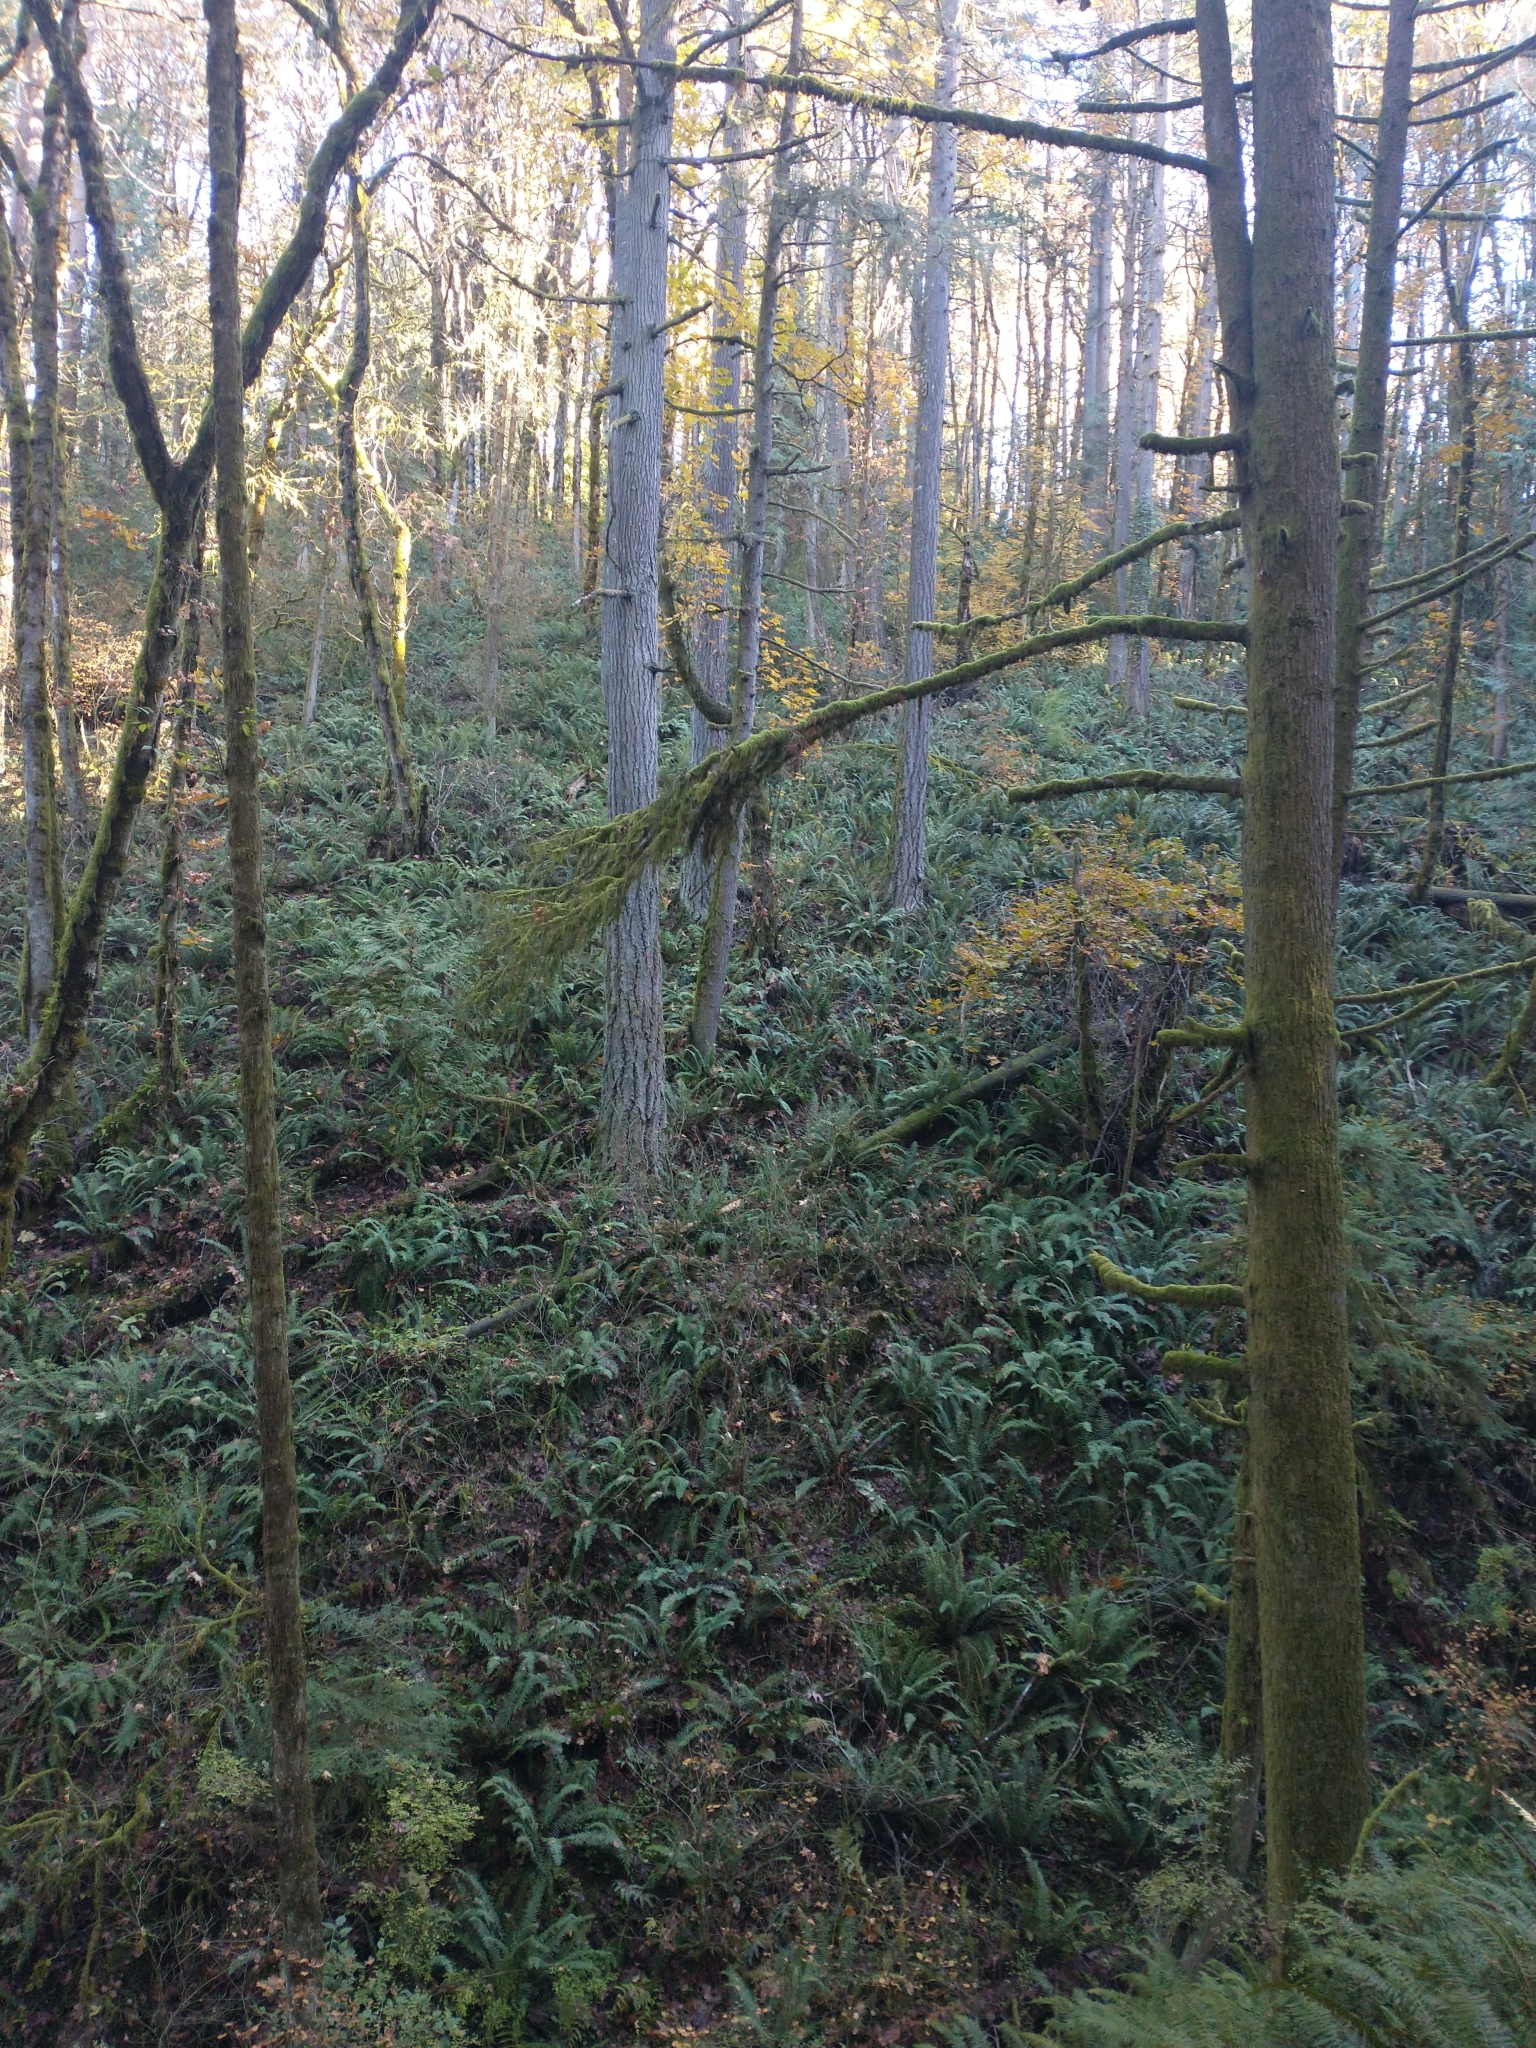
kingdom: Plantae
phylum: Tracheophyta
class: Pinopsida
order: Pinales
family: Pinaceae
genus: Tsuga
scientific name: Tsuga heterophylla
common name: Western hemlock
